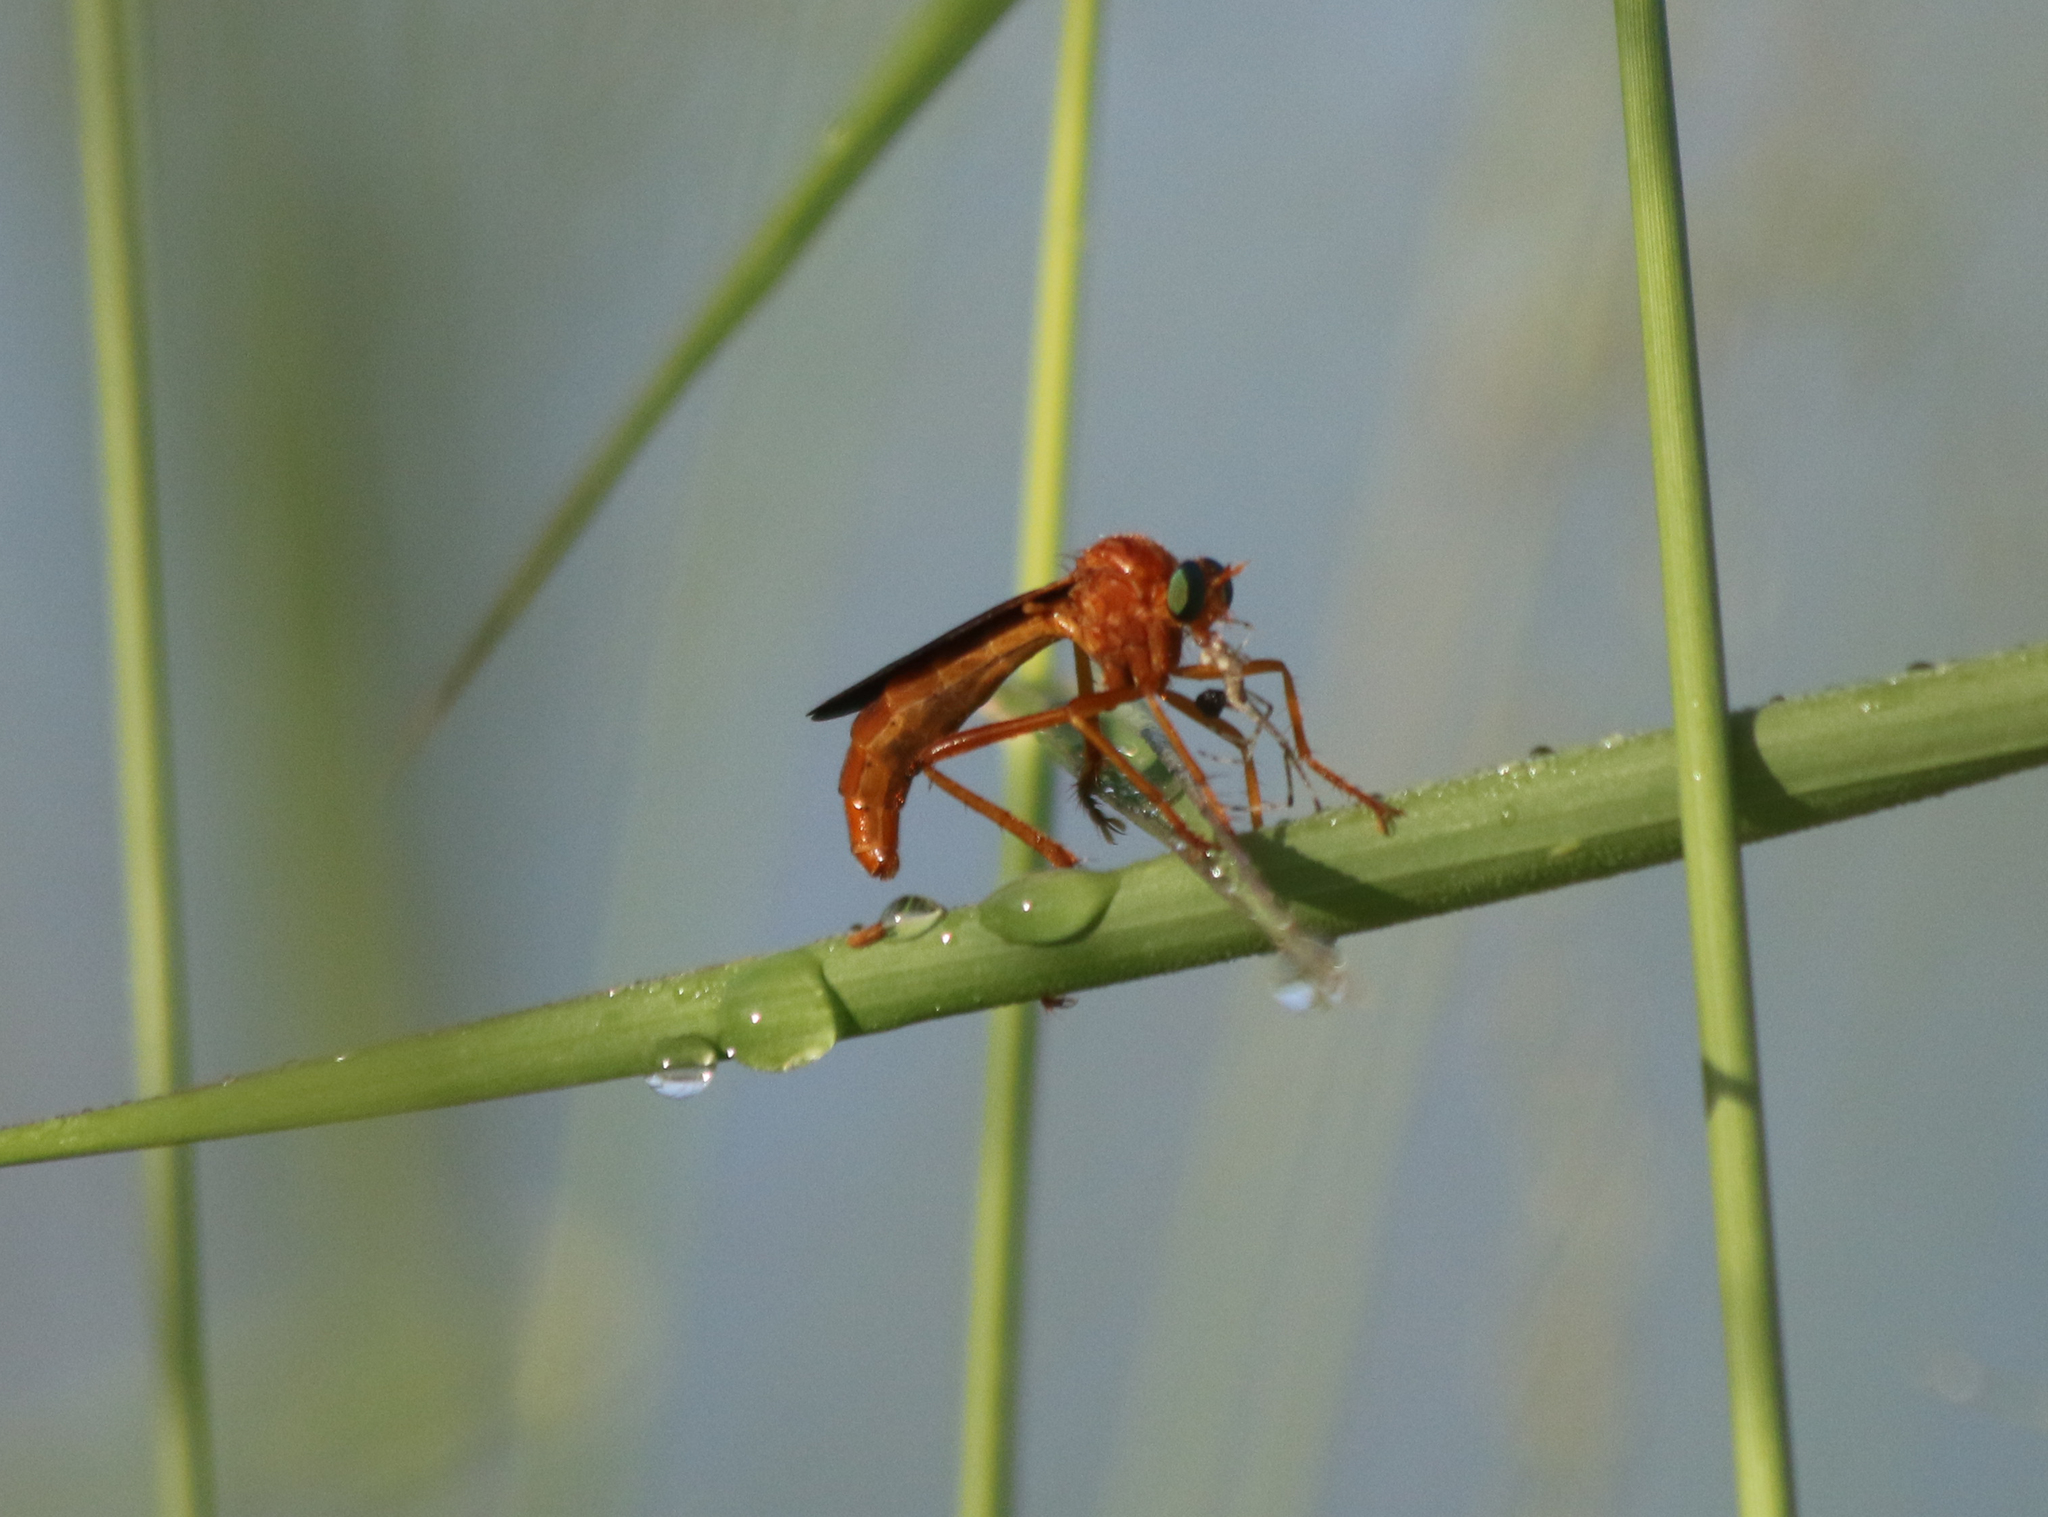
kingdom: Animalia
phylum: Arthropoda
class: Insecta
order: Diptera
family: Asilidae
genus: Plesiomma
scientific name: Plesiomma unicolor
